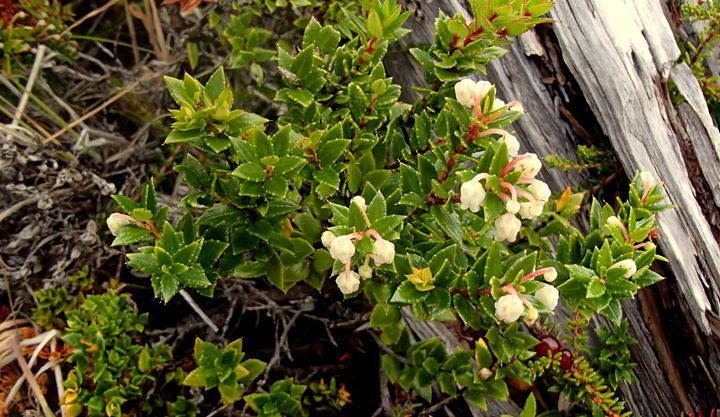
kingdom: Plantae
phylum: Tracheophyta
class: Magnoliopsida
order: Ericales
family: Ericaceae
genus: Gaultheria
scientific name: Gaultheria mucronata
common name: Prickly heath
